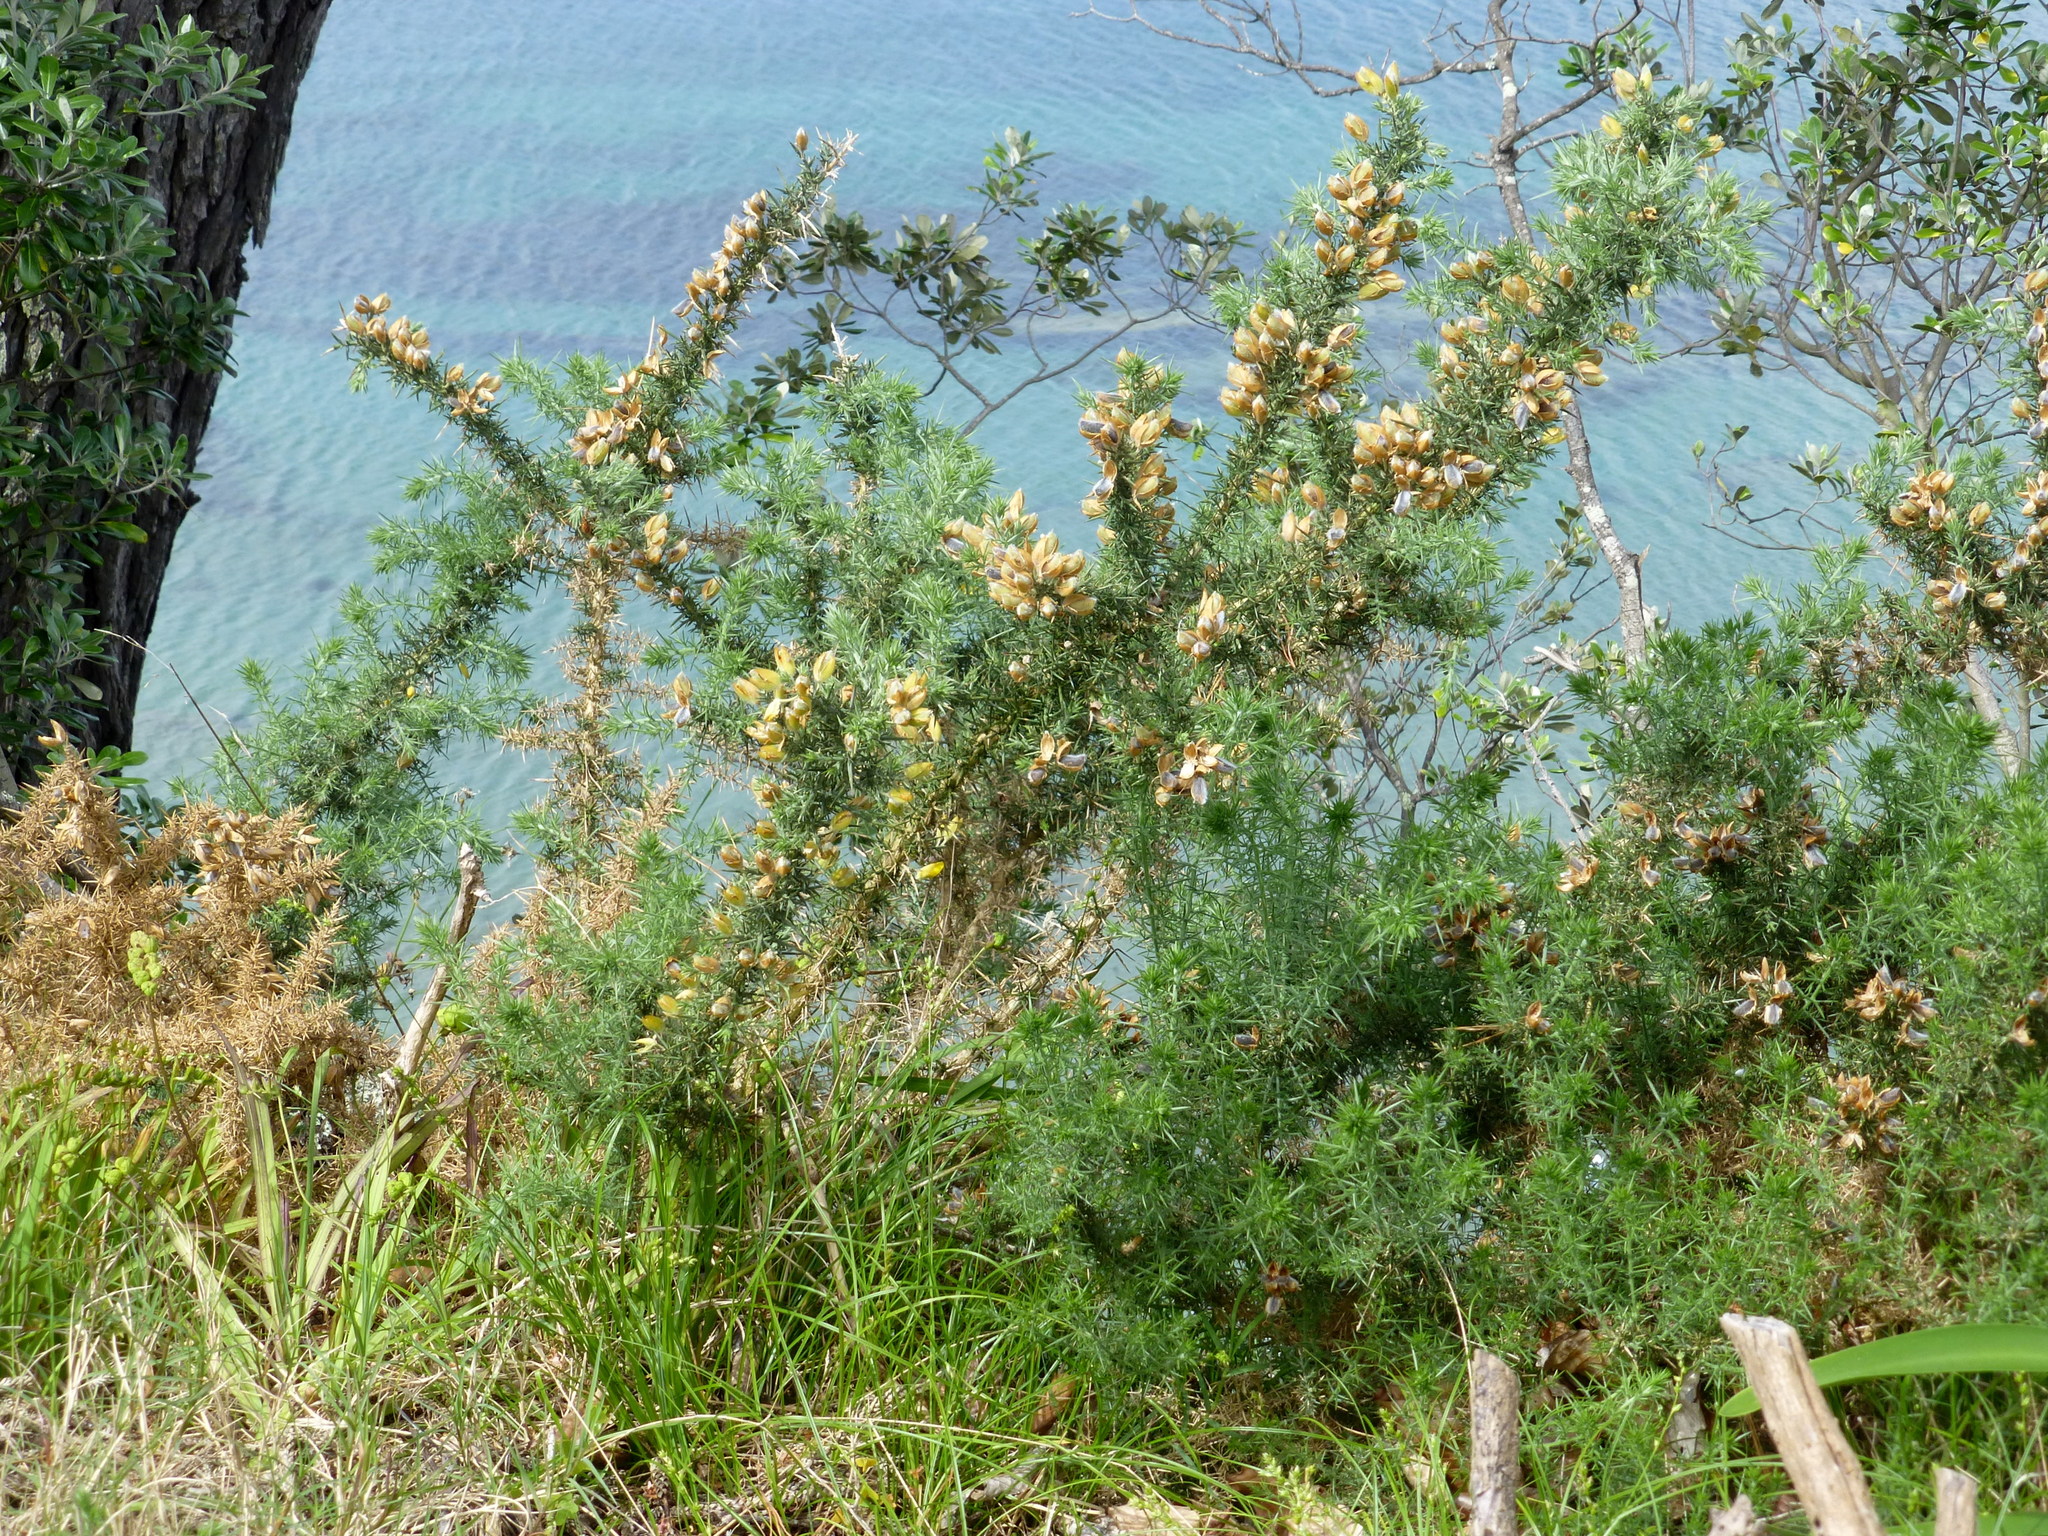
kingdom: Plantae
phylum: Tracheophyta
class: Magnoliopsida
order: Fabales
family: Fabaceae
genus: Ulex
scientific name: Ulex europaeus
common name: Common gorse
